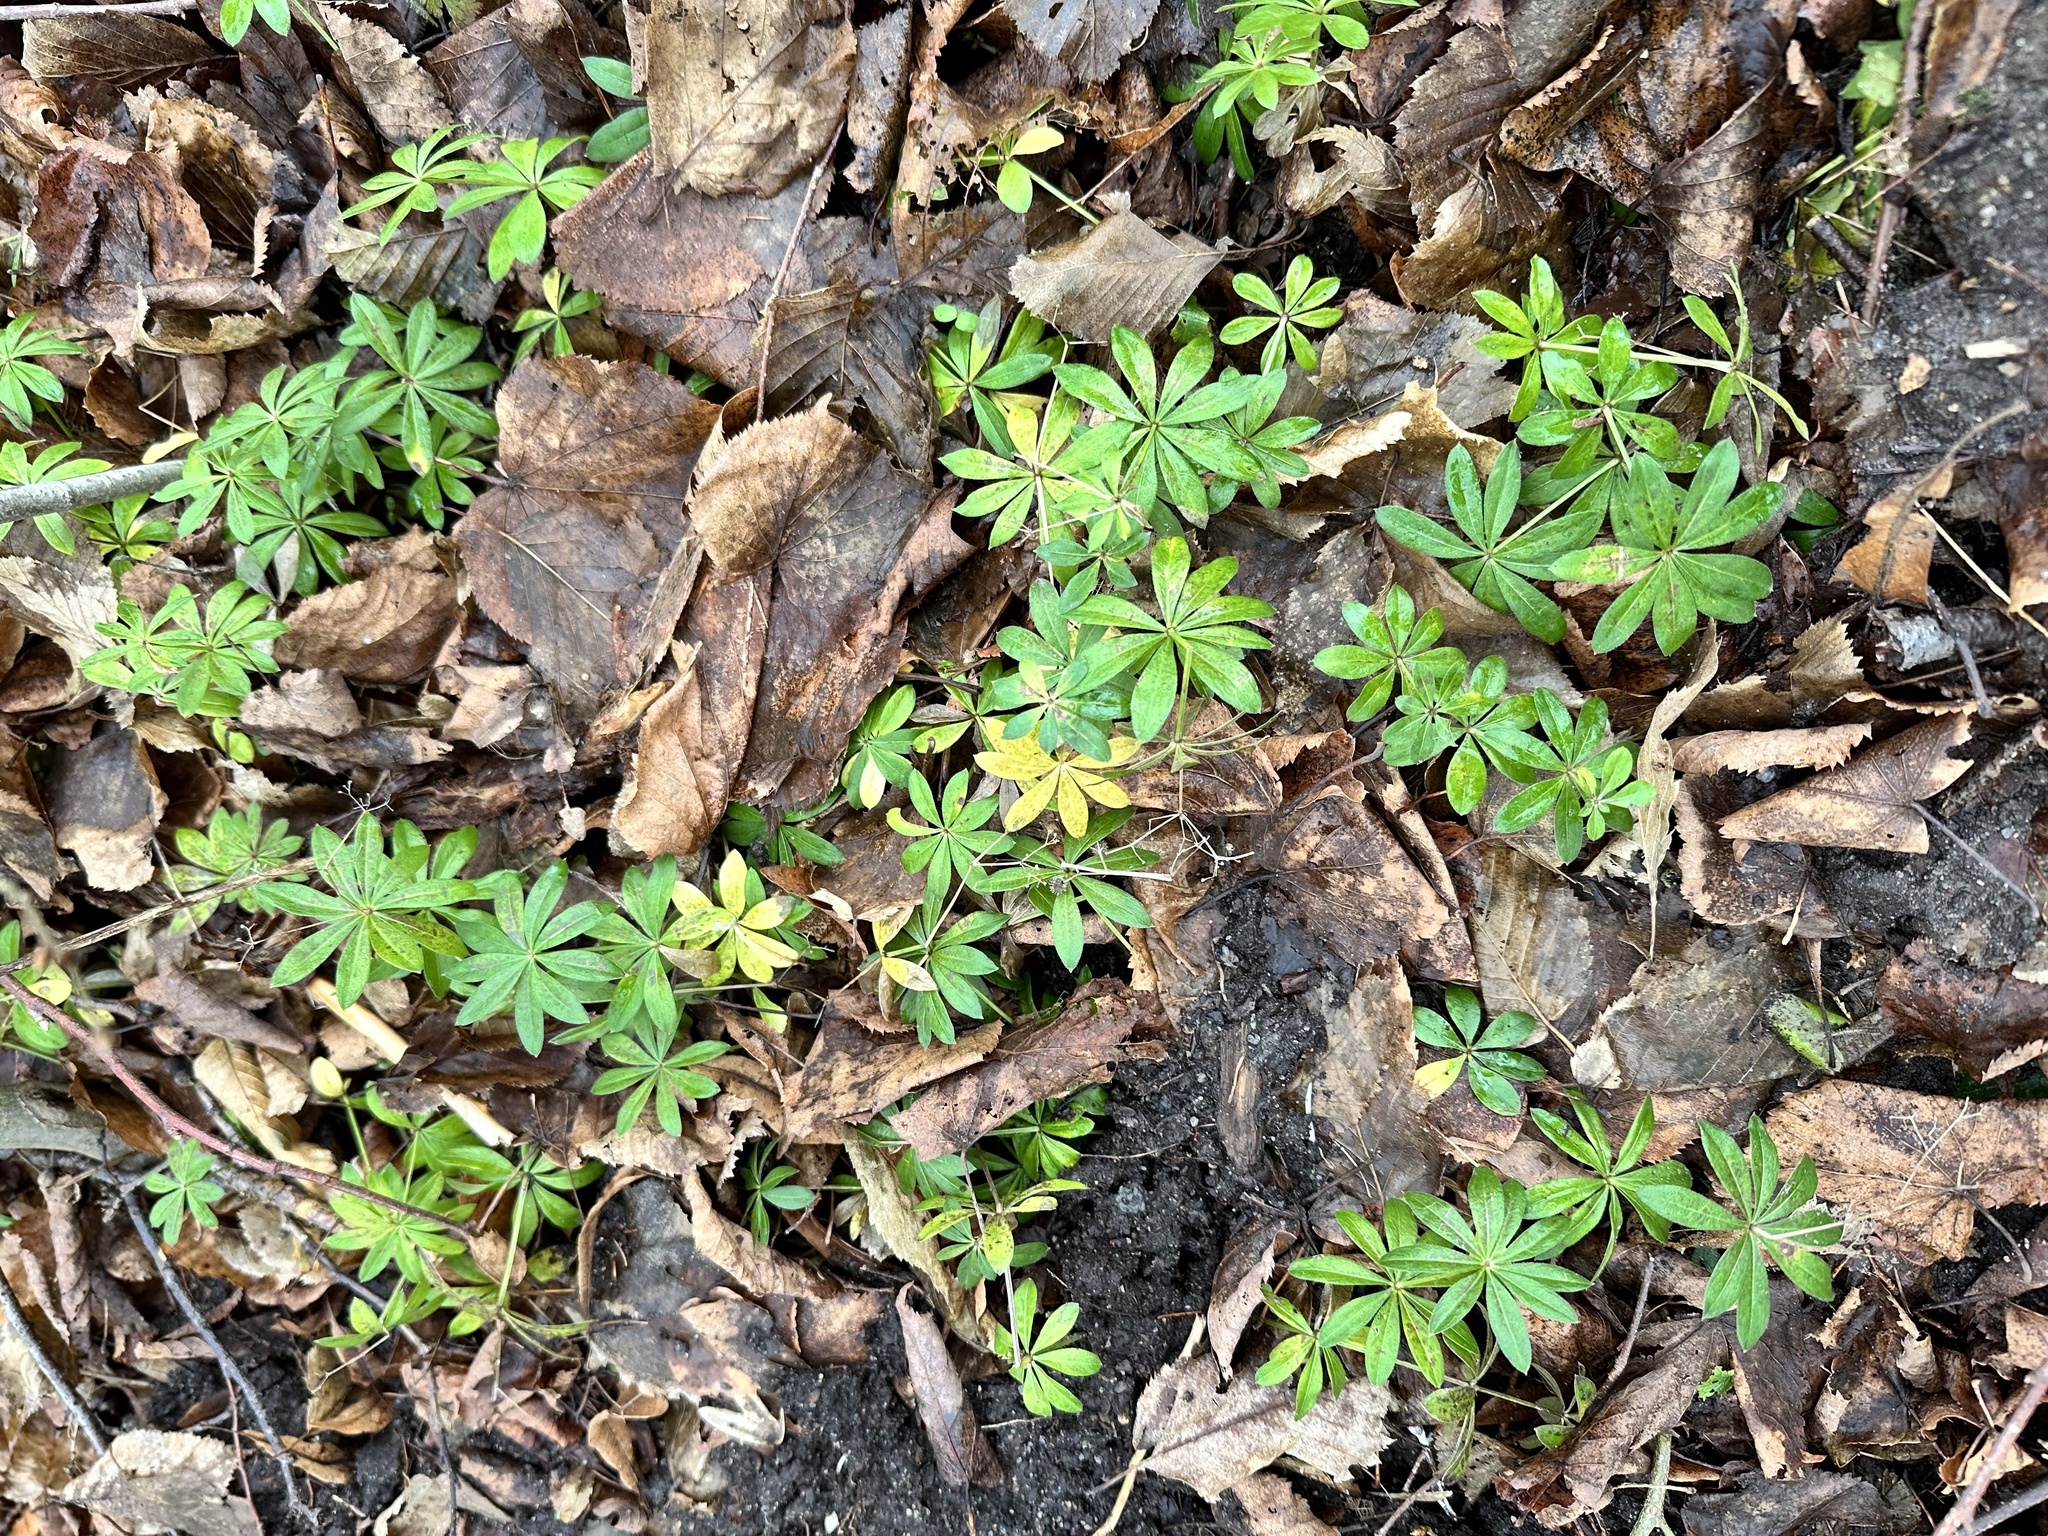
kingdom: Plantae
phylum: Tracheophyta
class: Magnoliopsida
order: Gentianales
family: Rubiaceae
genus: Galium
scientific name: Galium odoratum
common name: Sweet woodruff
